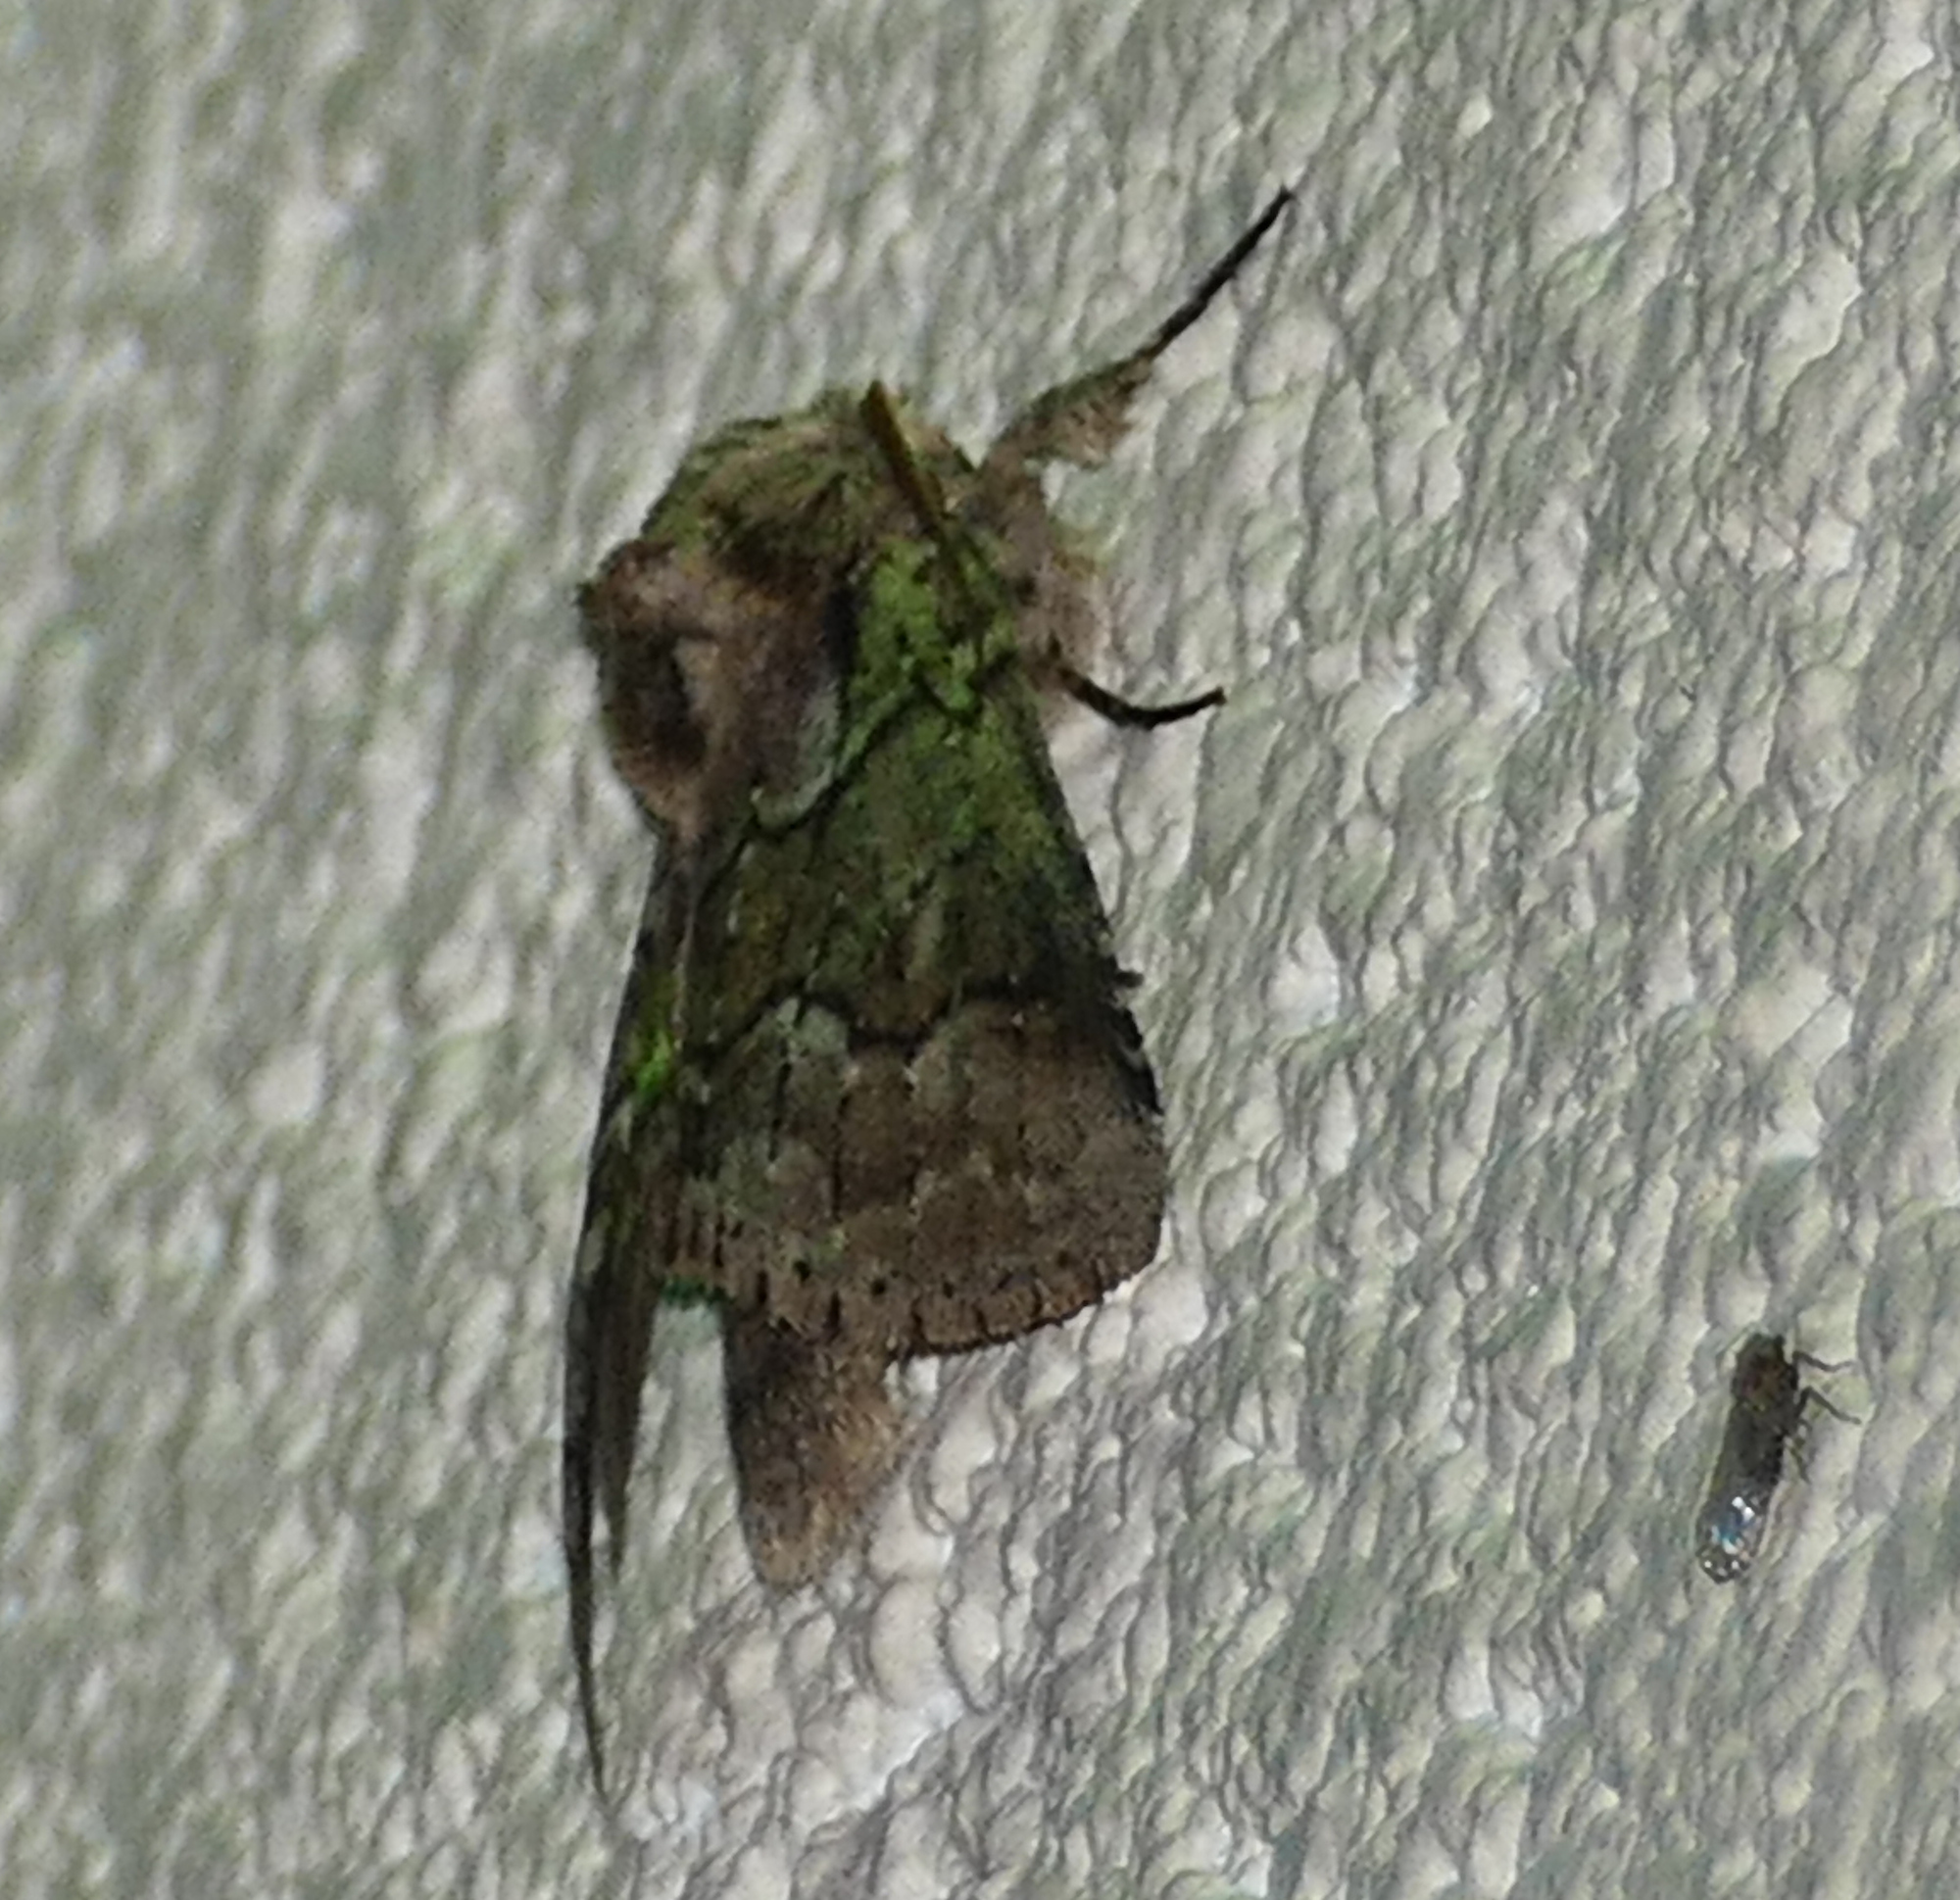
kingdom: Animalia
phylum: Arthropoda
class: Insecta
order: Lepidoptera
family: Notodontidae
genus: Lochmaeus
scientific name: Lochmaeus bilineata
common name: Double-lined prominent
